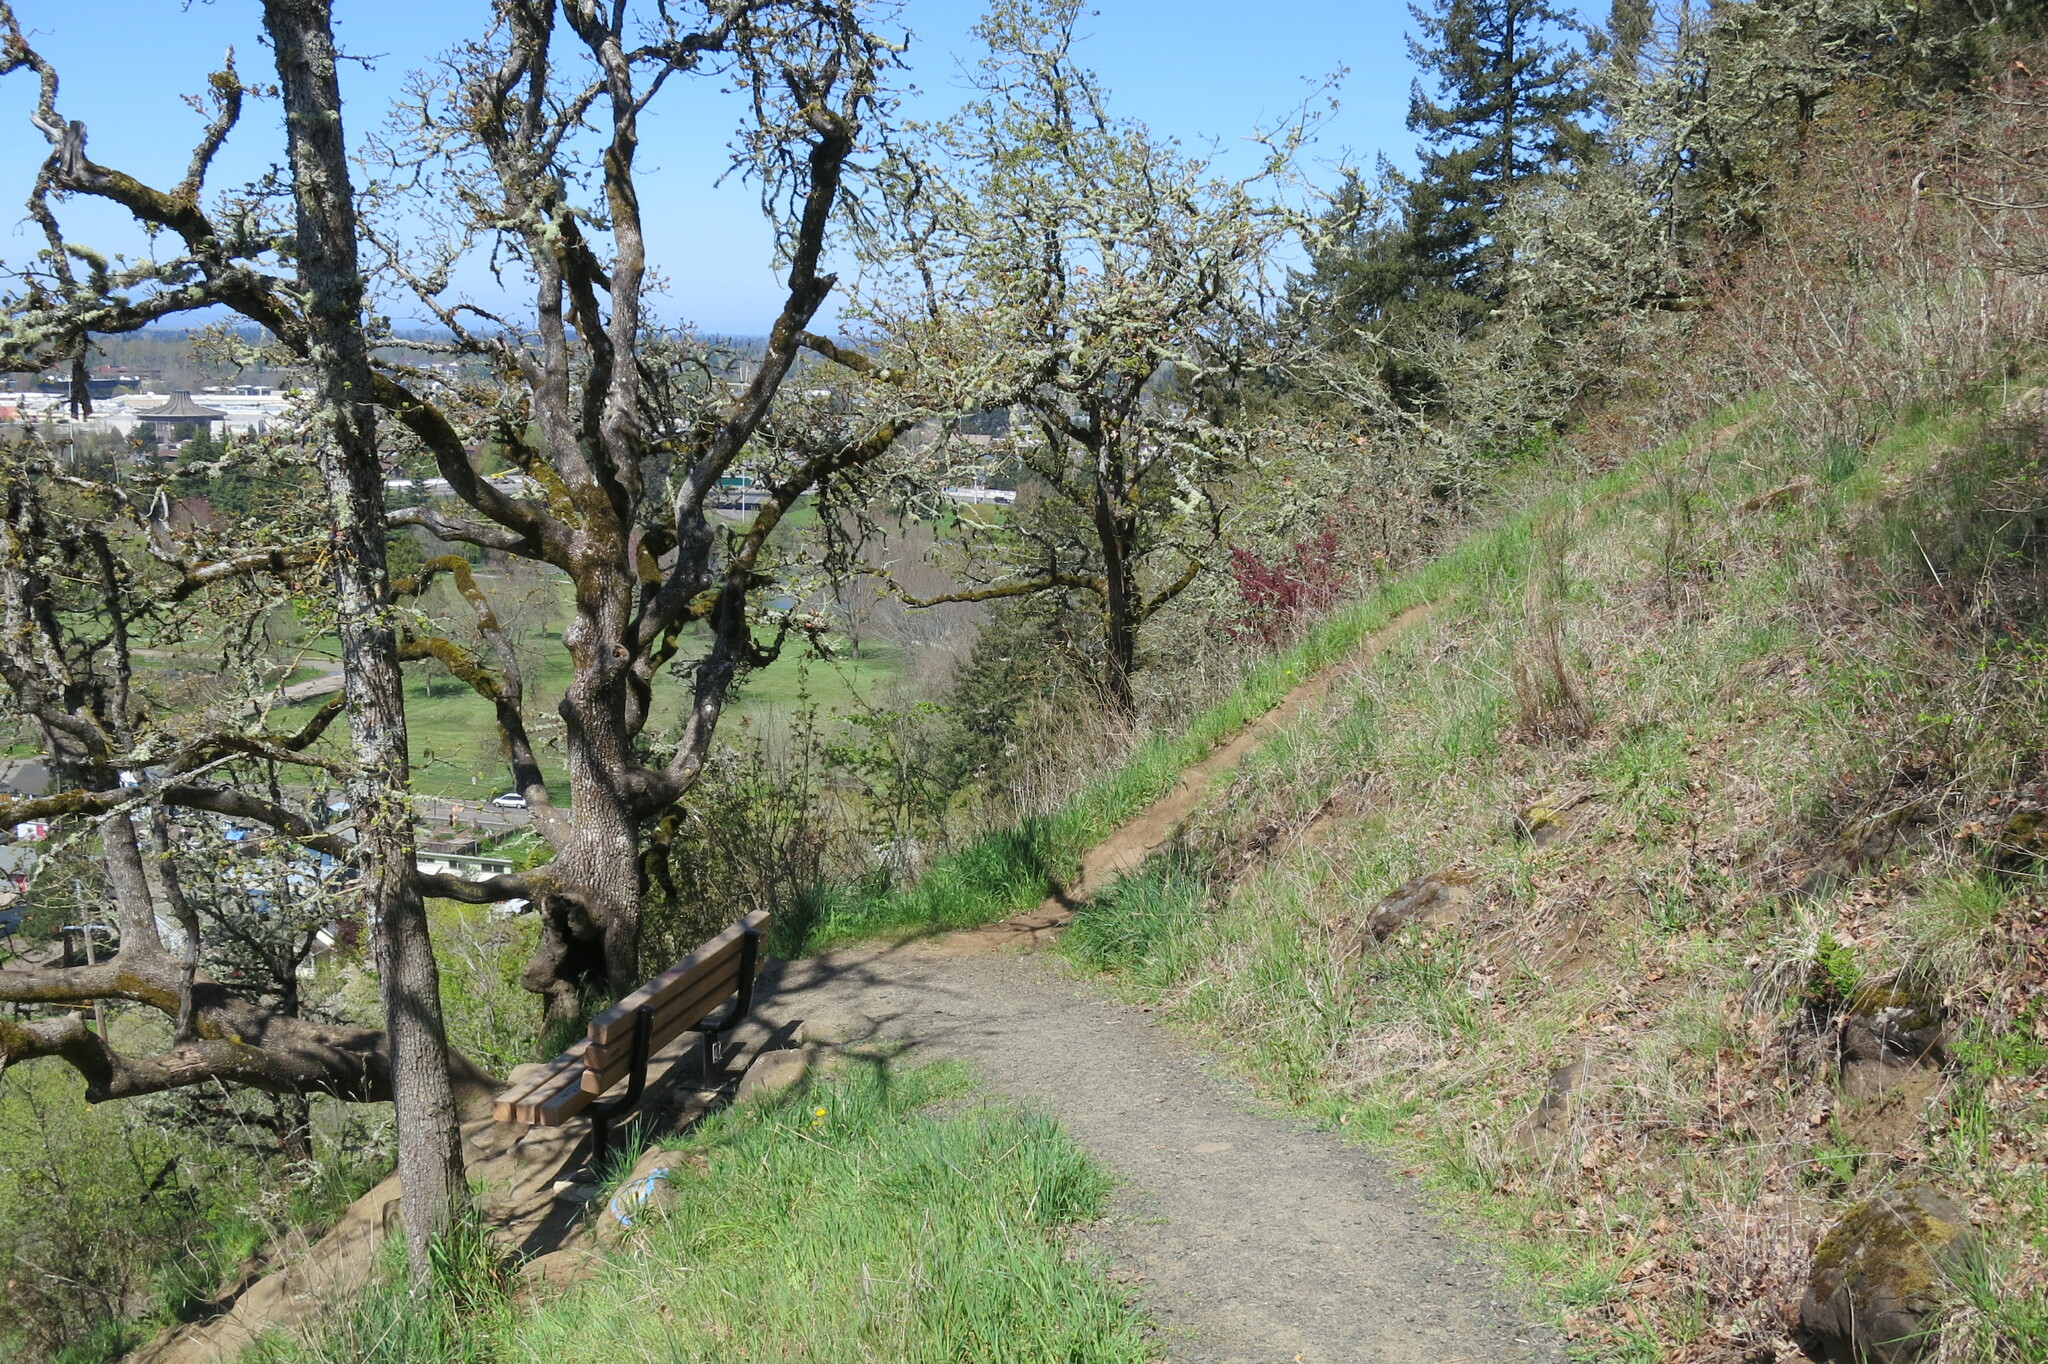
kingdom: Plantae
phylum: Tracheophyta
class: Polypodiopsida
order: Polypodiales
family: Pteridaceae
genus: Pentagramma
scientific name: Pentagramma triangularis
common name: Gold fern
